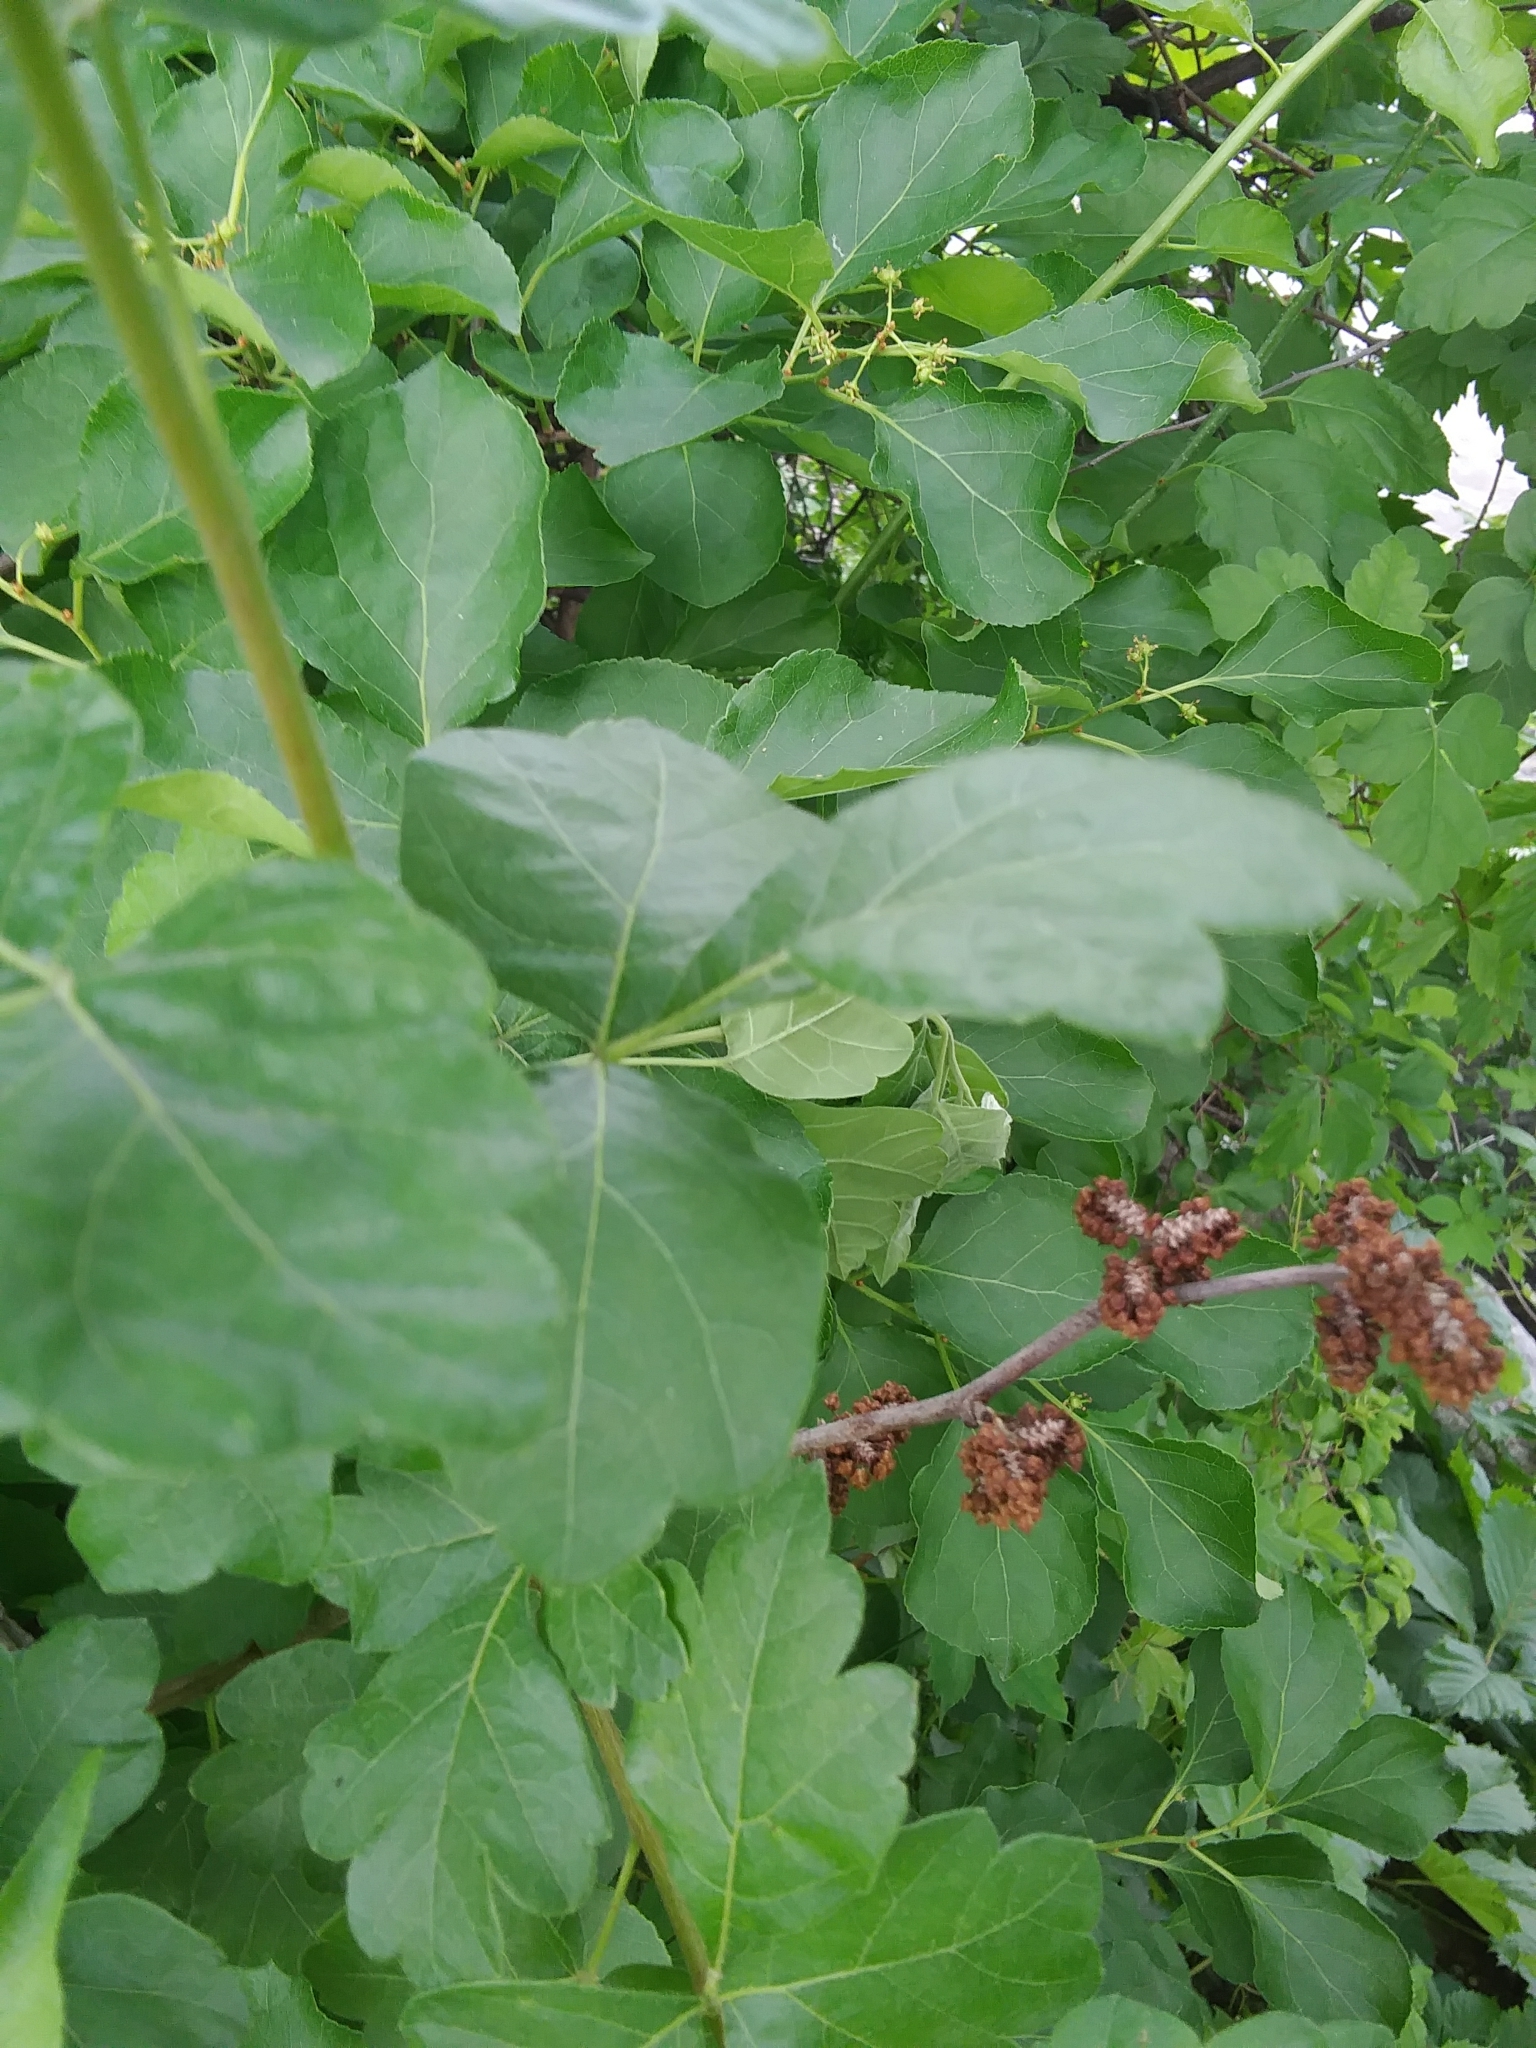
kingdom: Plantae
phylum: Tracheophyta
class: Magnoliopsida
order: Sapindales
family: Anacardiaceae
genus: Rhus
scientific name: Rhus aromatica
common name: Aromatic sumac
